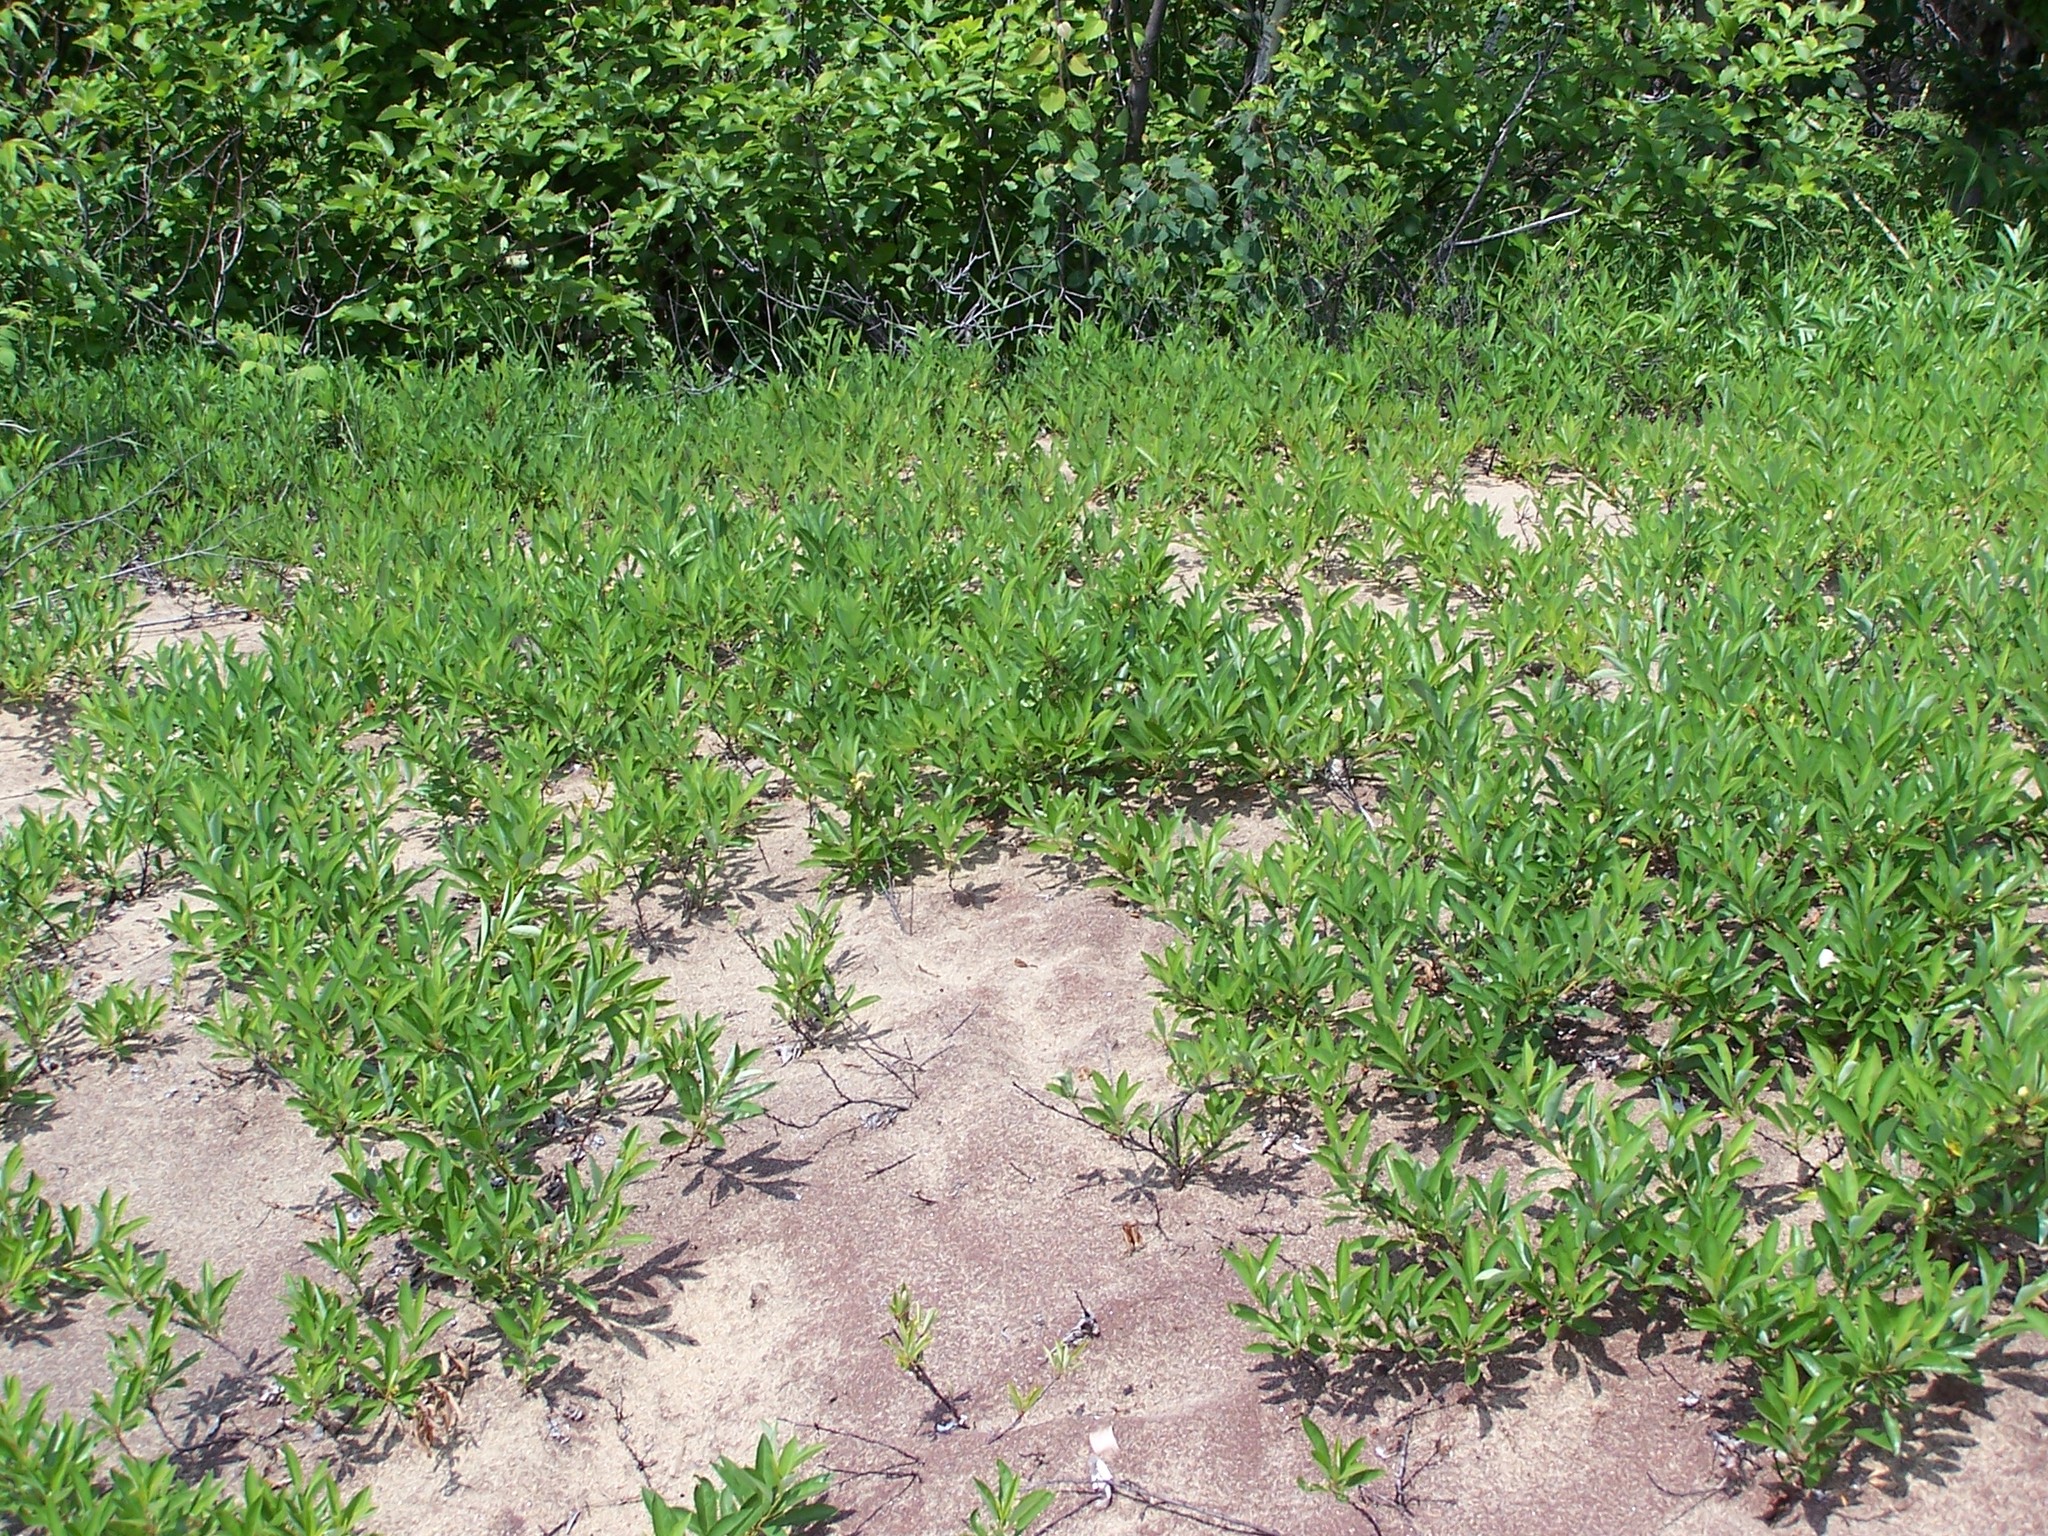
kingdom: Plantae
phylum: Tracheophyta
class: Magnoliopsida
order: Rosales
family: Rosaceae
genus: Prunus
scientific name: Prunus pumila
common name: Dwarf cherry
